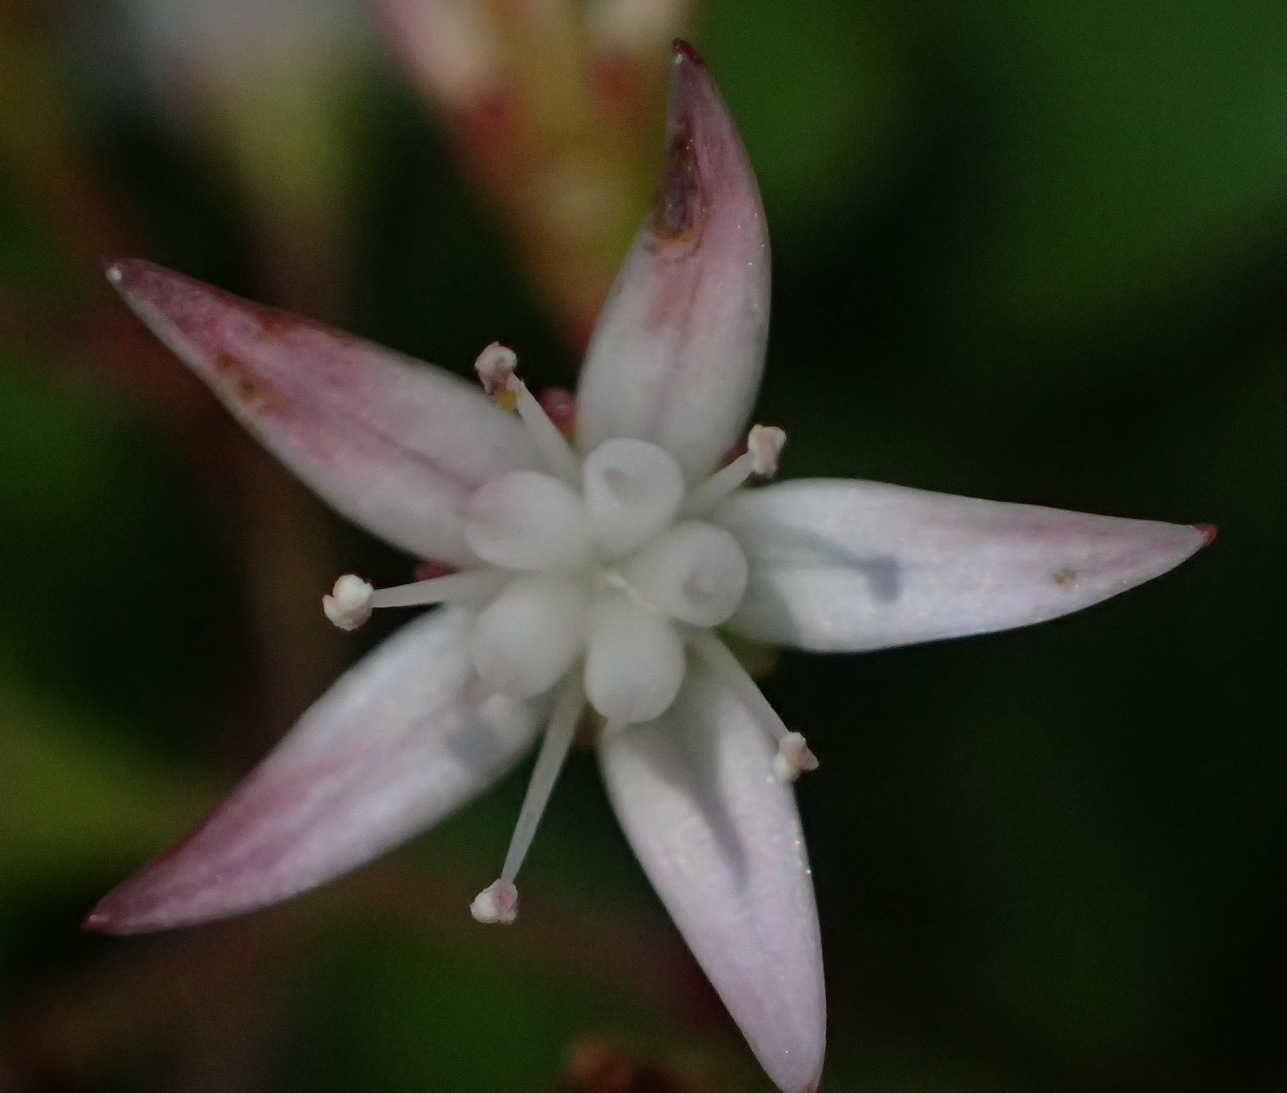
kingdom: Plantae
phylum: Tracheophyta
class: Magnoliopsida
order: Saxifragales
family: Crassulaceae
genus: Crassula
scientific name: Crassula sarmentosa
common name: Jade-tree
